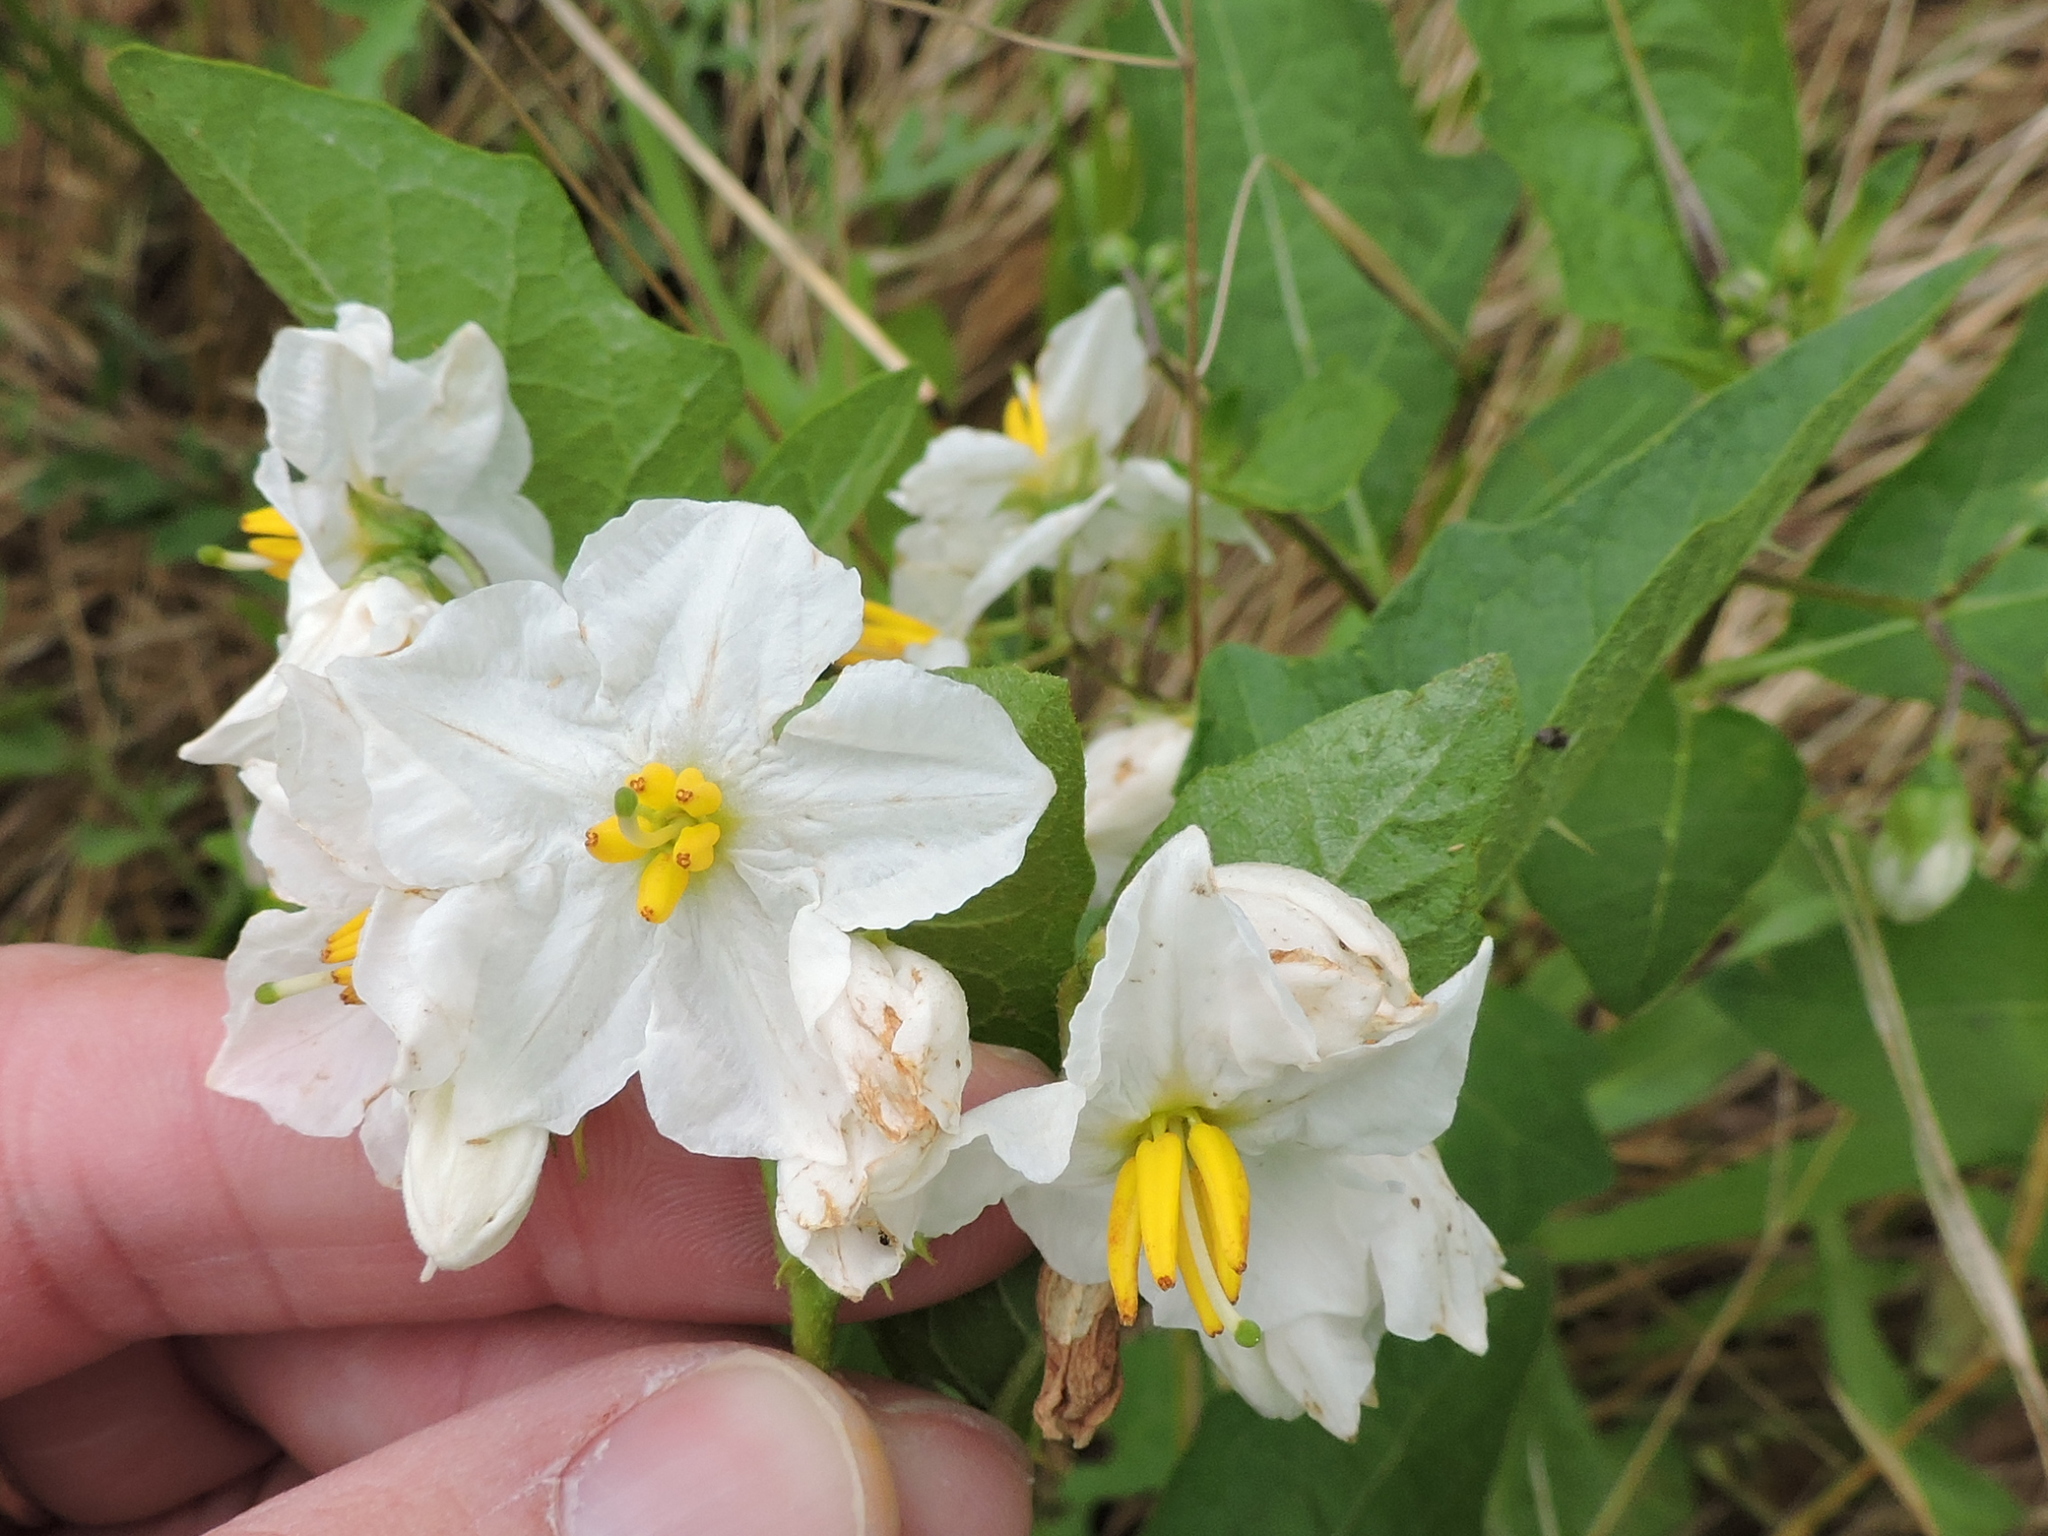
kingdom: Plantae
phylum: Tracheophyta
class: Magnoliopsida
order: Solanales
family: Solanaceae
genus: Solanum
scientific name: Solanum carolinense
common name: Horse-nettle
